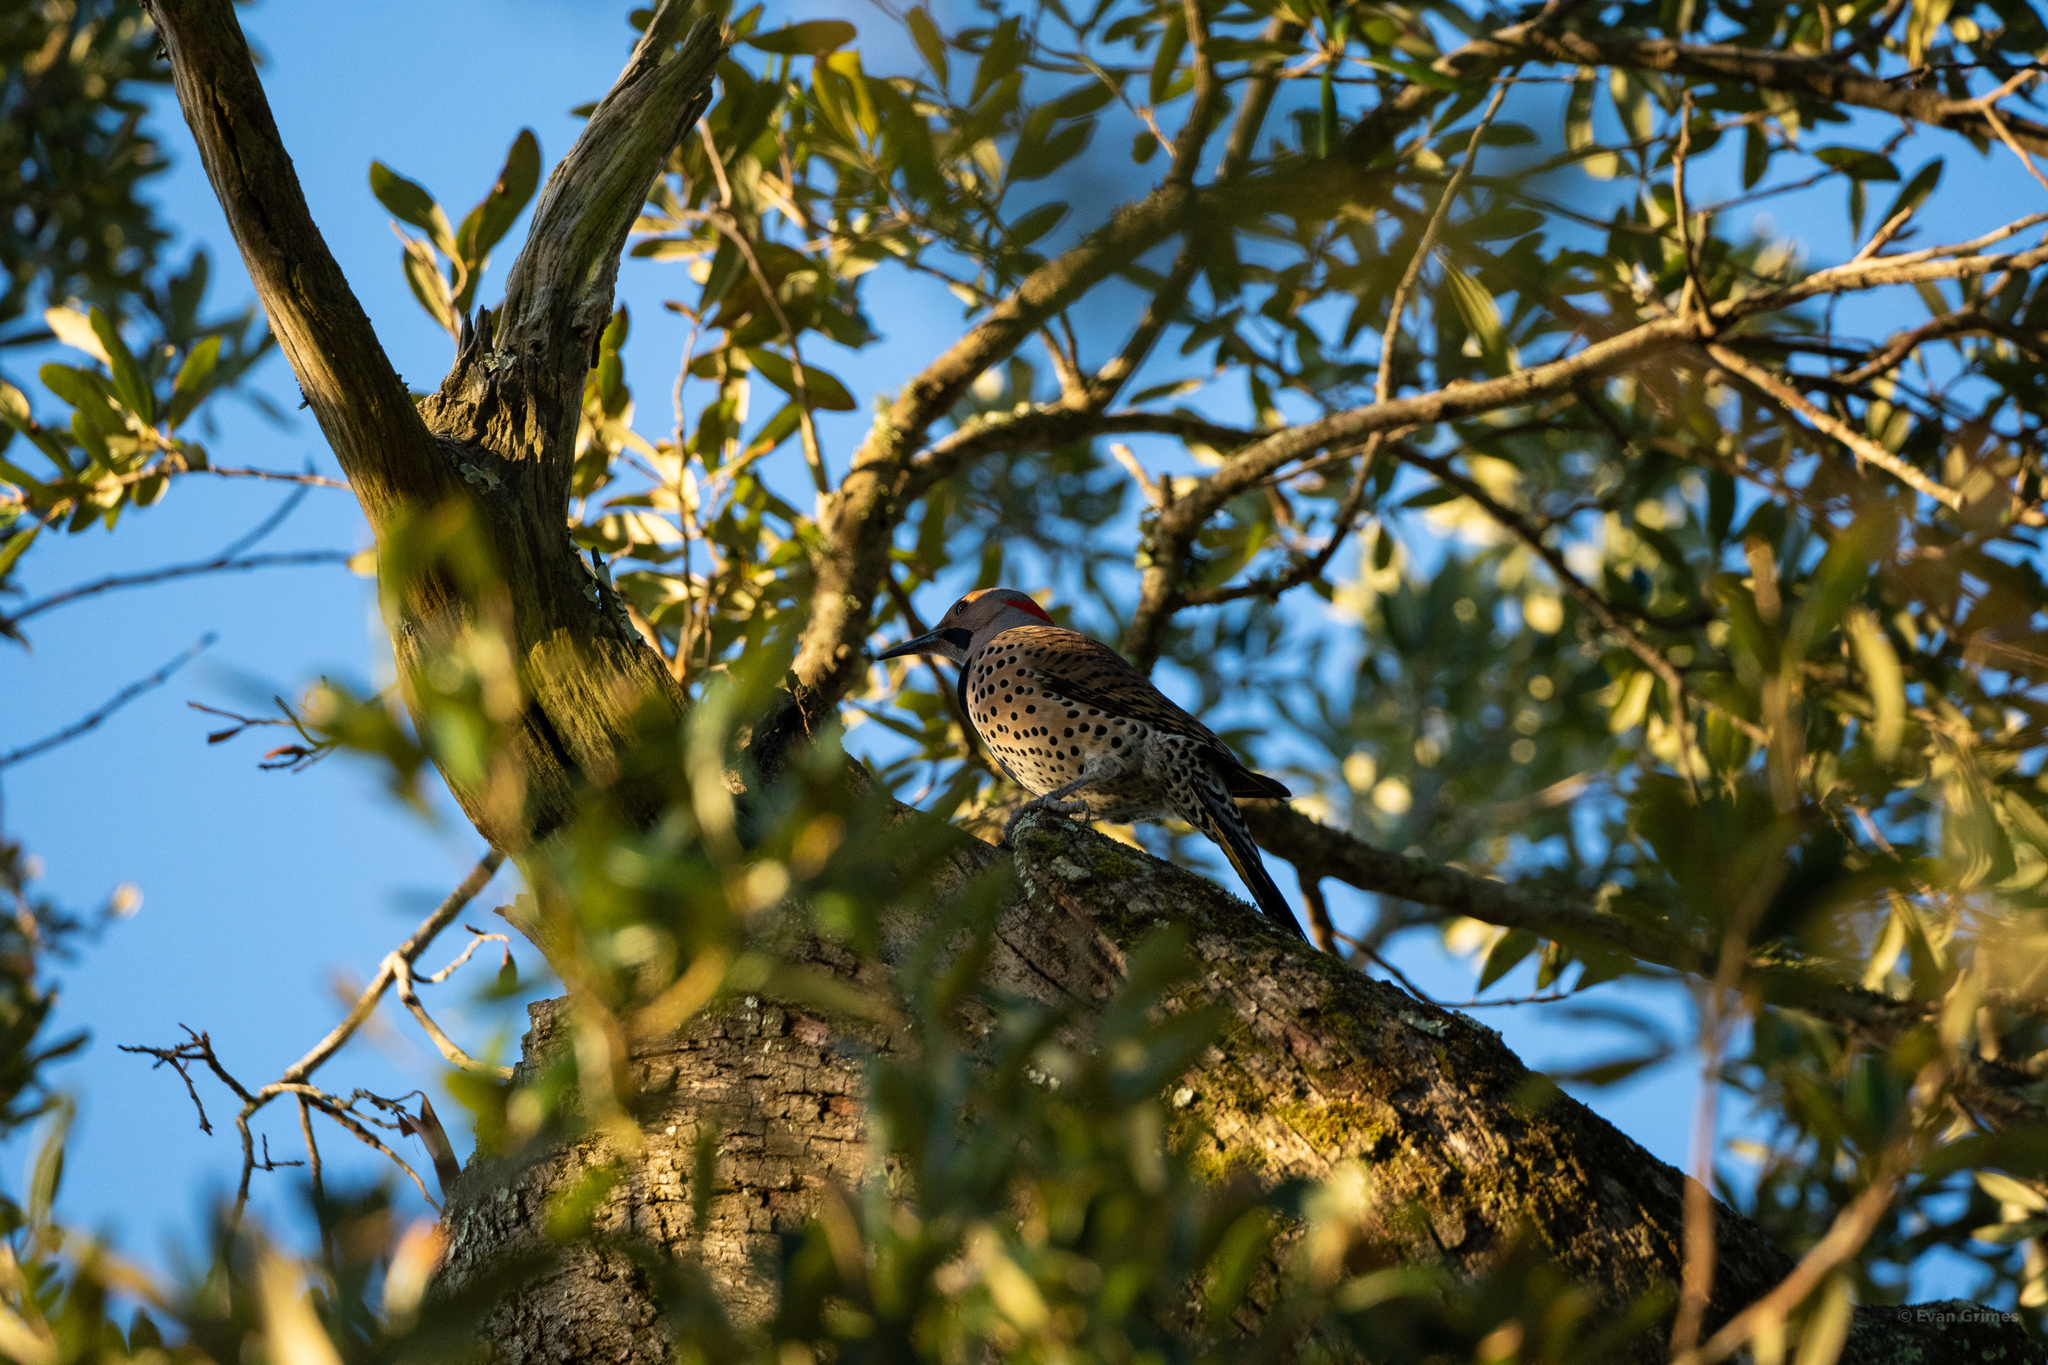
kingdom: Animalia
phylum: Chordata
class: Aves
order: Piciformes
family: Picidae
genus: Colaptes
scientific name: Colaptes auratus
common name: Northern flicker
